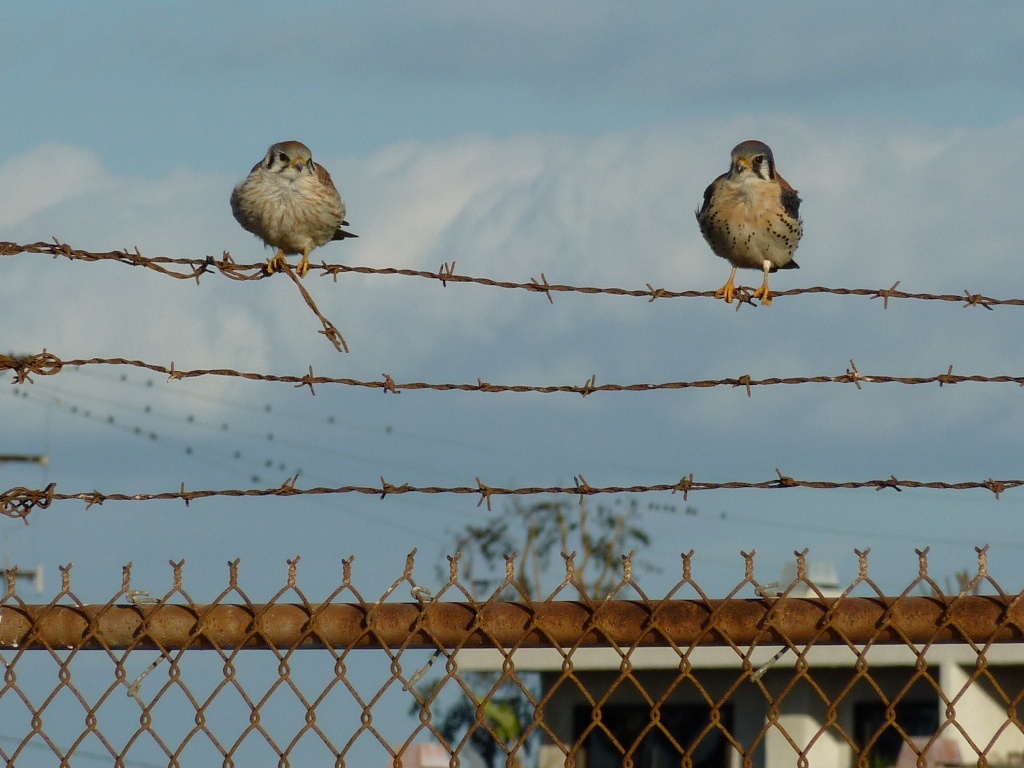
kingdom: Animalia
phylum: Chordata
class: Aves
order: Falconiformes
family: Falconidae
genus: Falco
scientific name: Falco sparverius
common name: American kestrel
